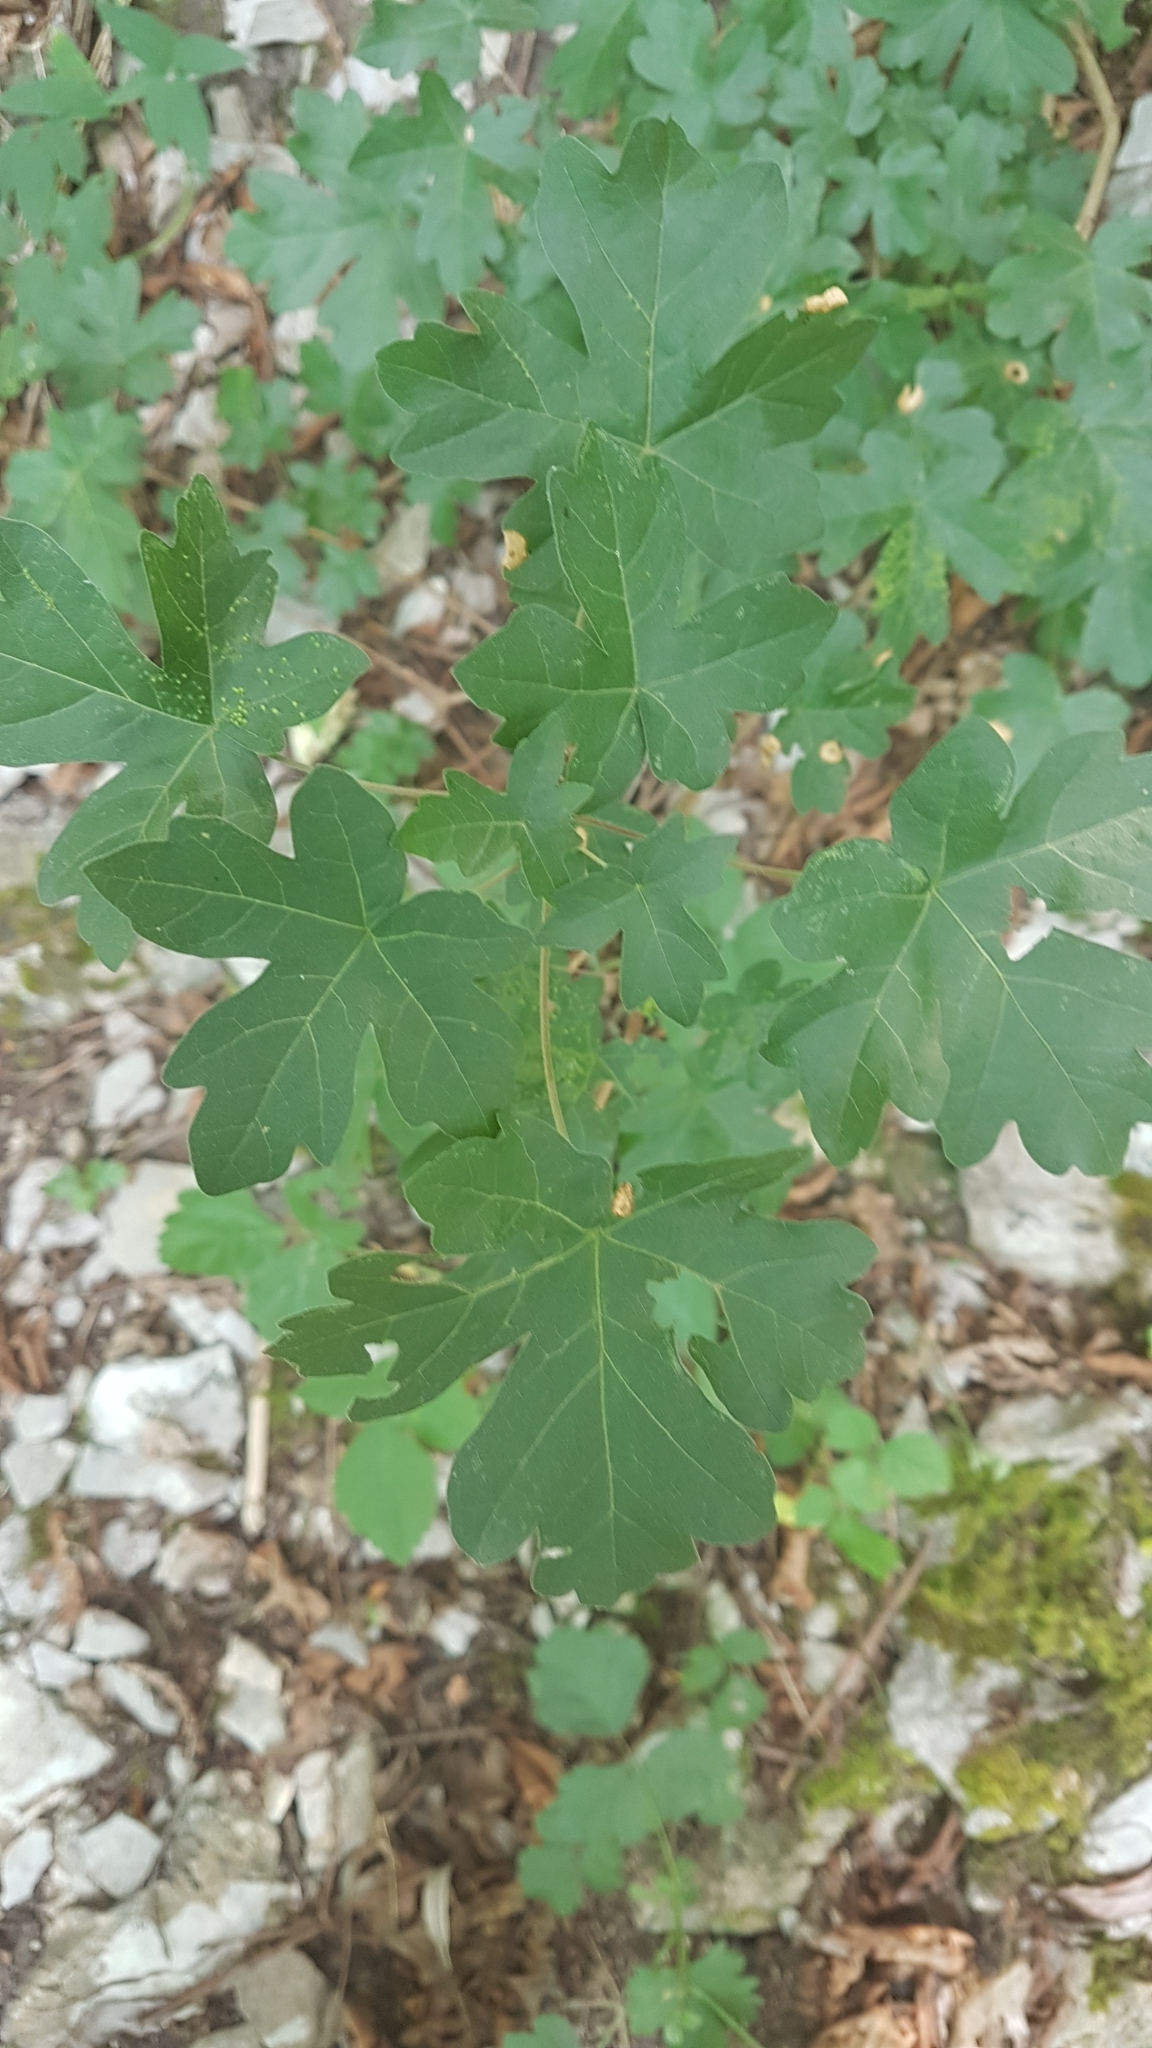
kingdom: Plantae
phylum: Tracheophyta
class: Magnoliopsida
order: Sapindales
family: Sapindaceae
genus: Acer
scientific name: Acer campestre
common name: Field maple
